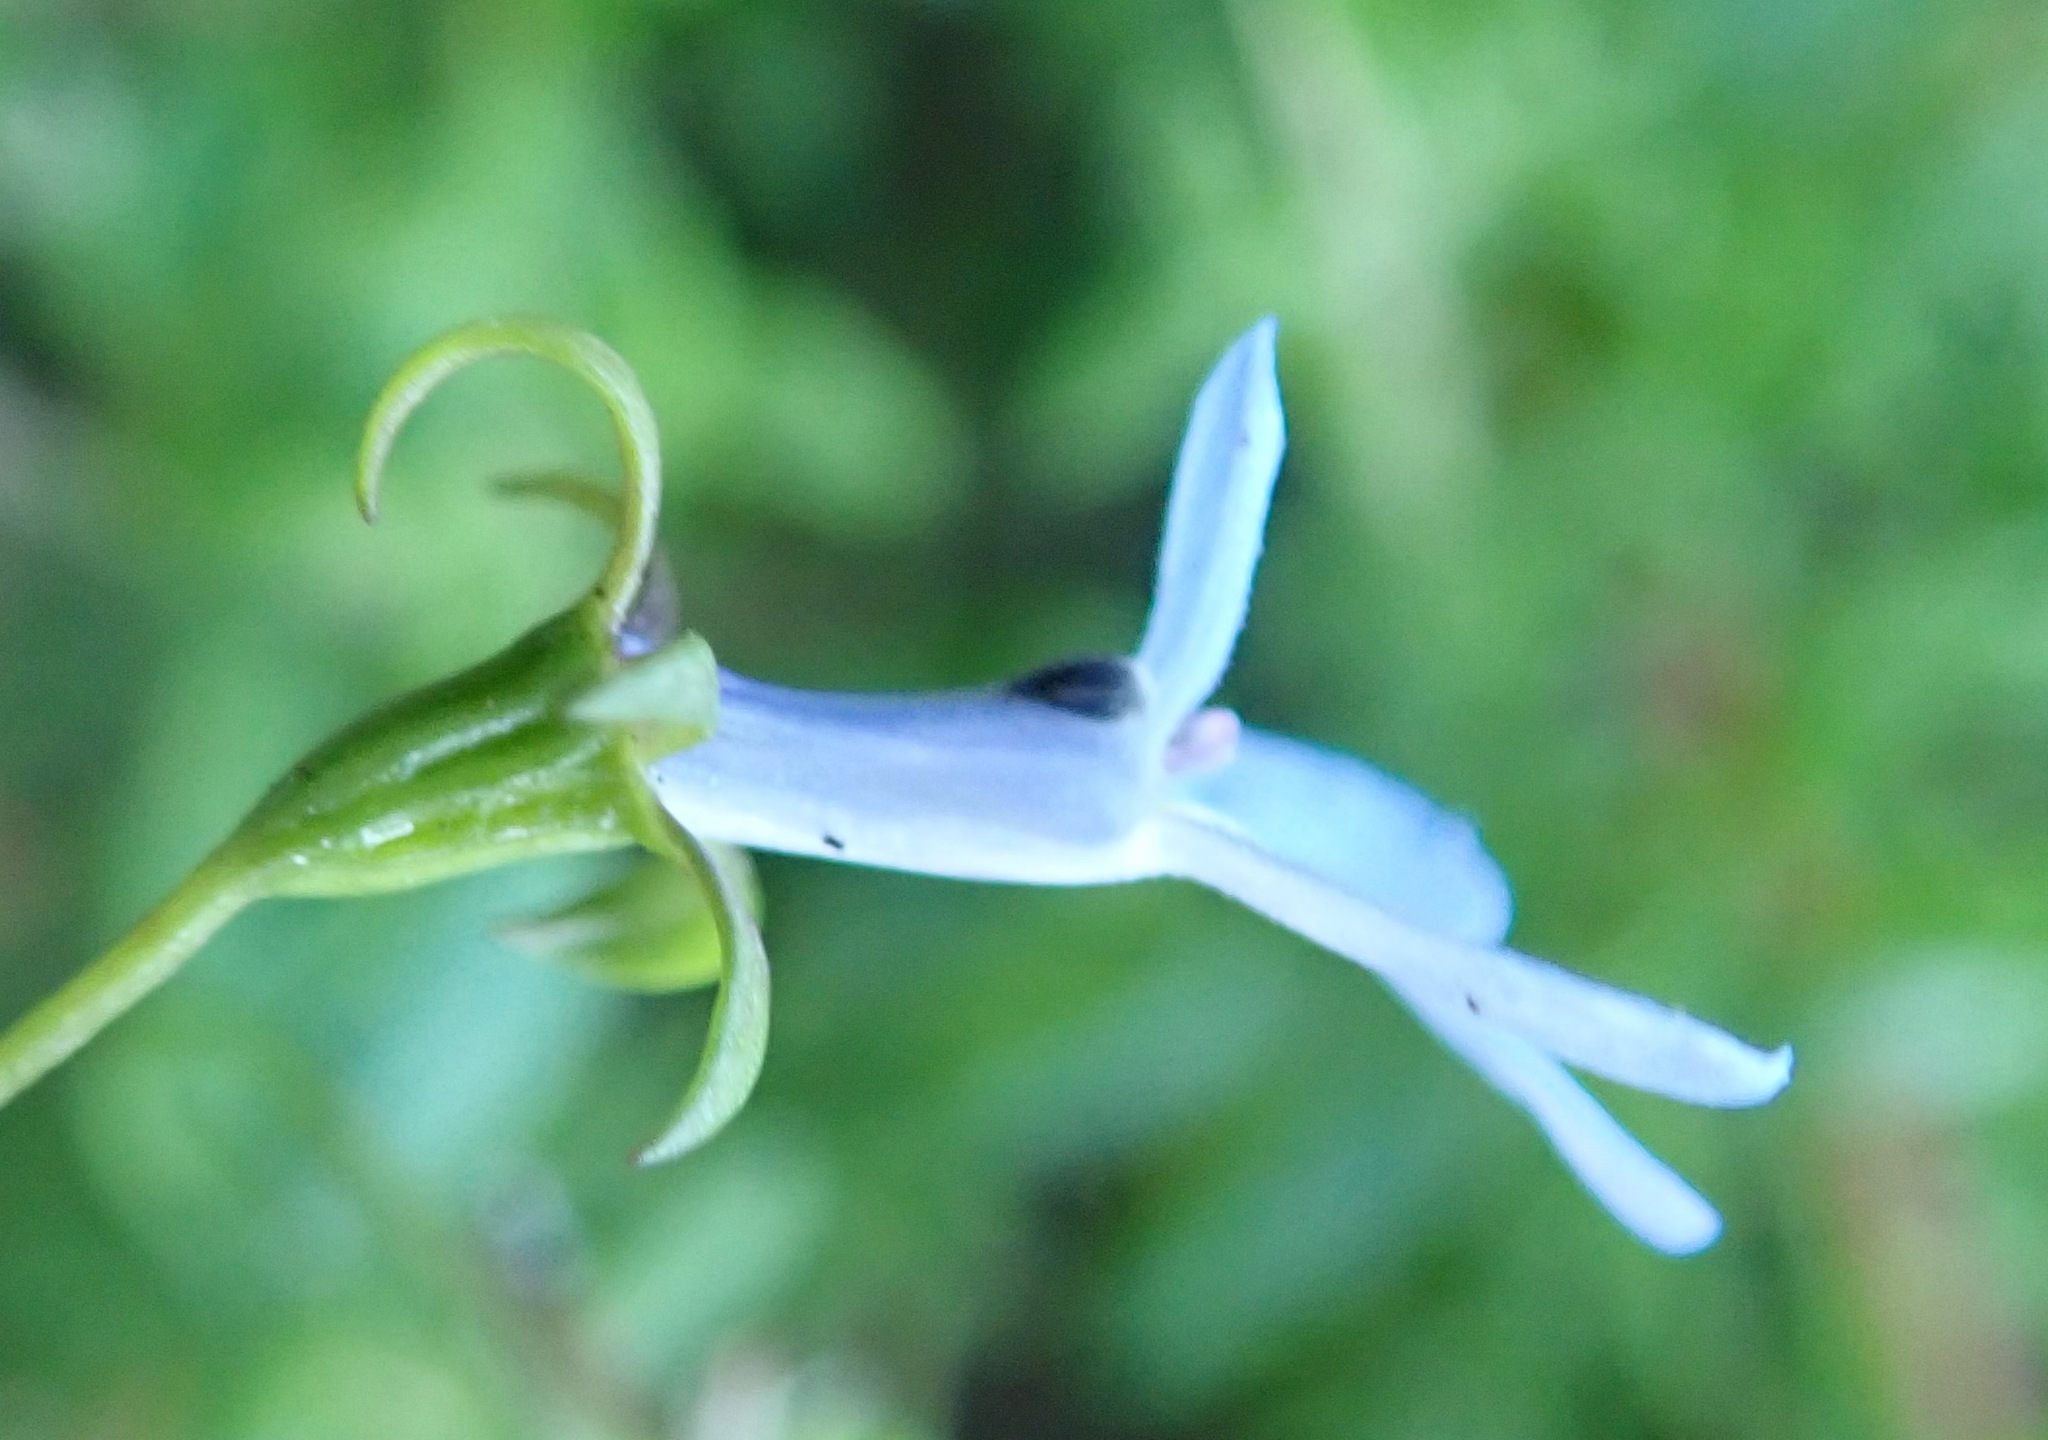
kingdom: Plantae
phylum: Tracheophyta
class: Magnoliopsida
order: Asterales
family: Campanulaceae
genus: Lobelia
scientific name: Lobelia erinus
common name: Edging lobelia
